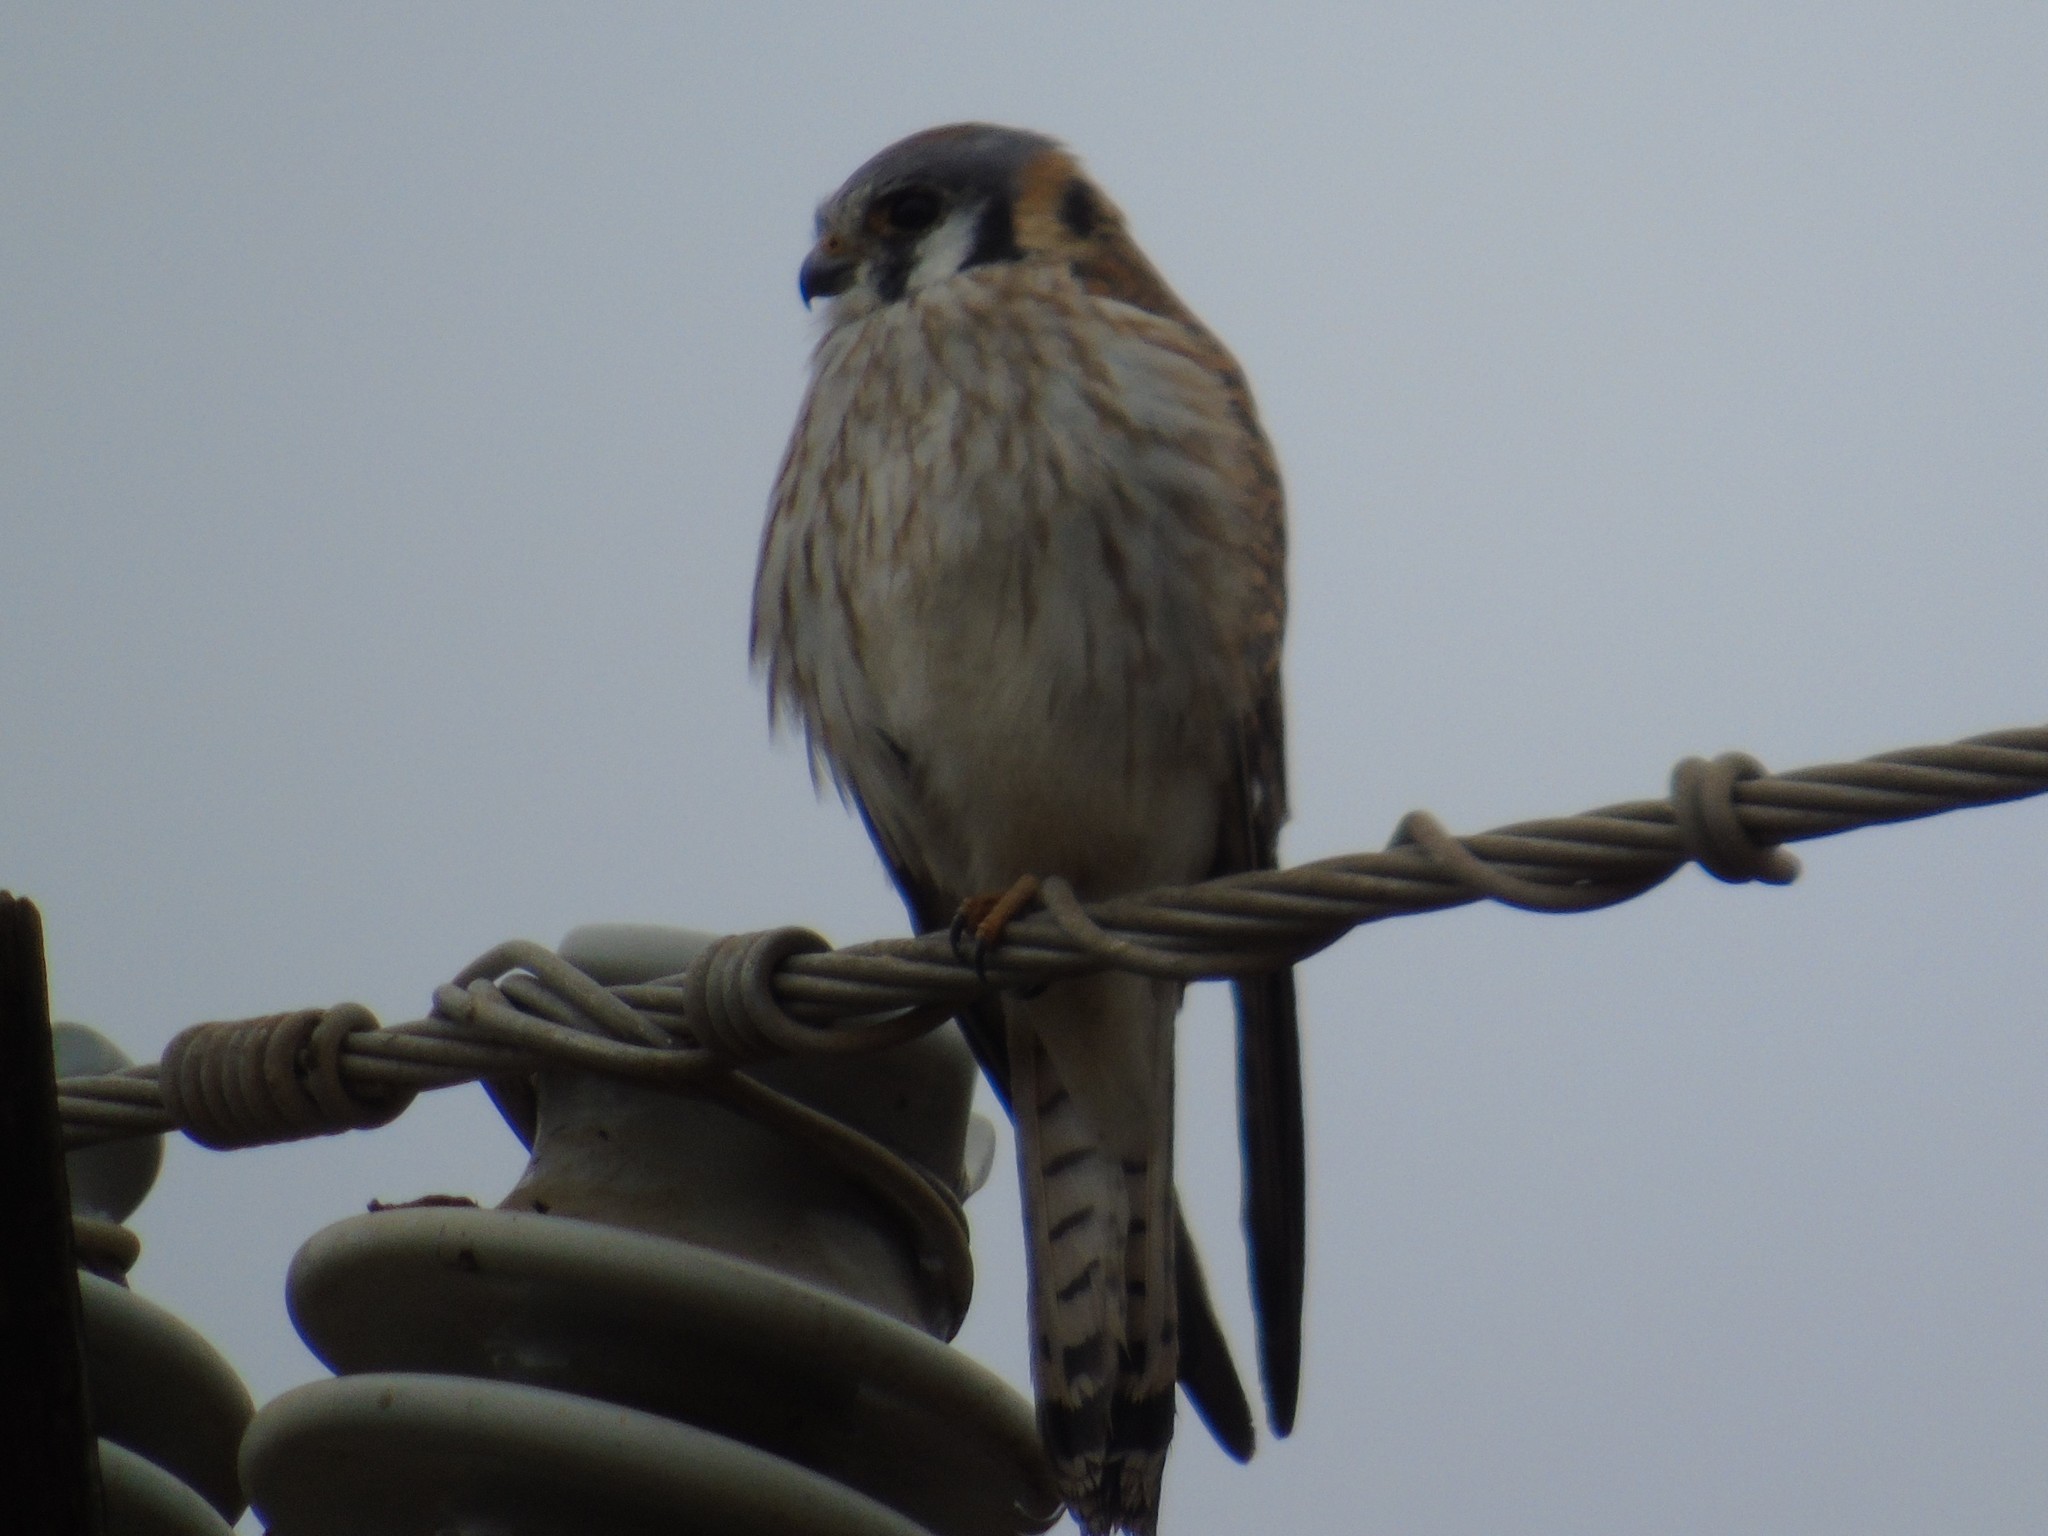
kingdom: Animalia
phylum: Chordata
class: Aves
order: Falconiformes
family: Falconidae
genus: Falco
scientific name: Falco sparverius
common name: American kestrel
